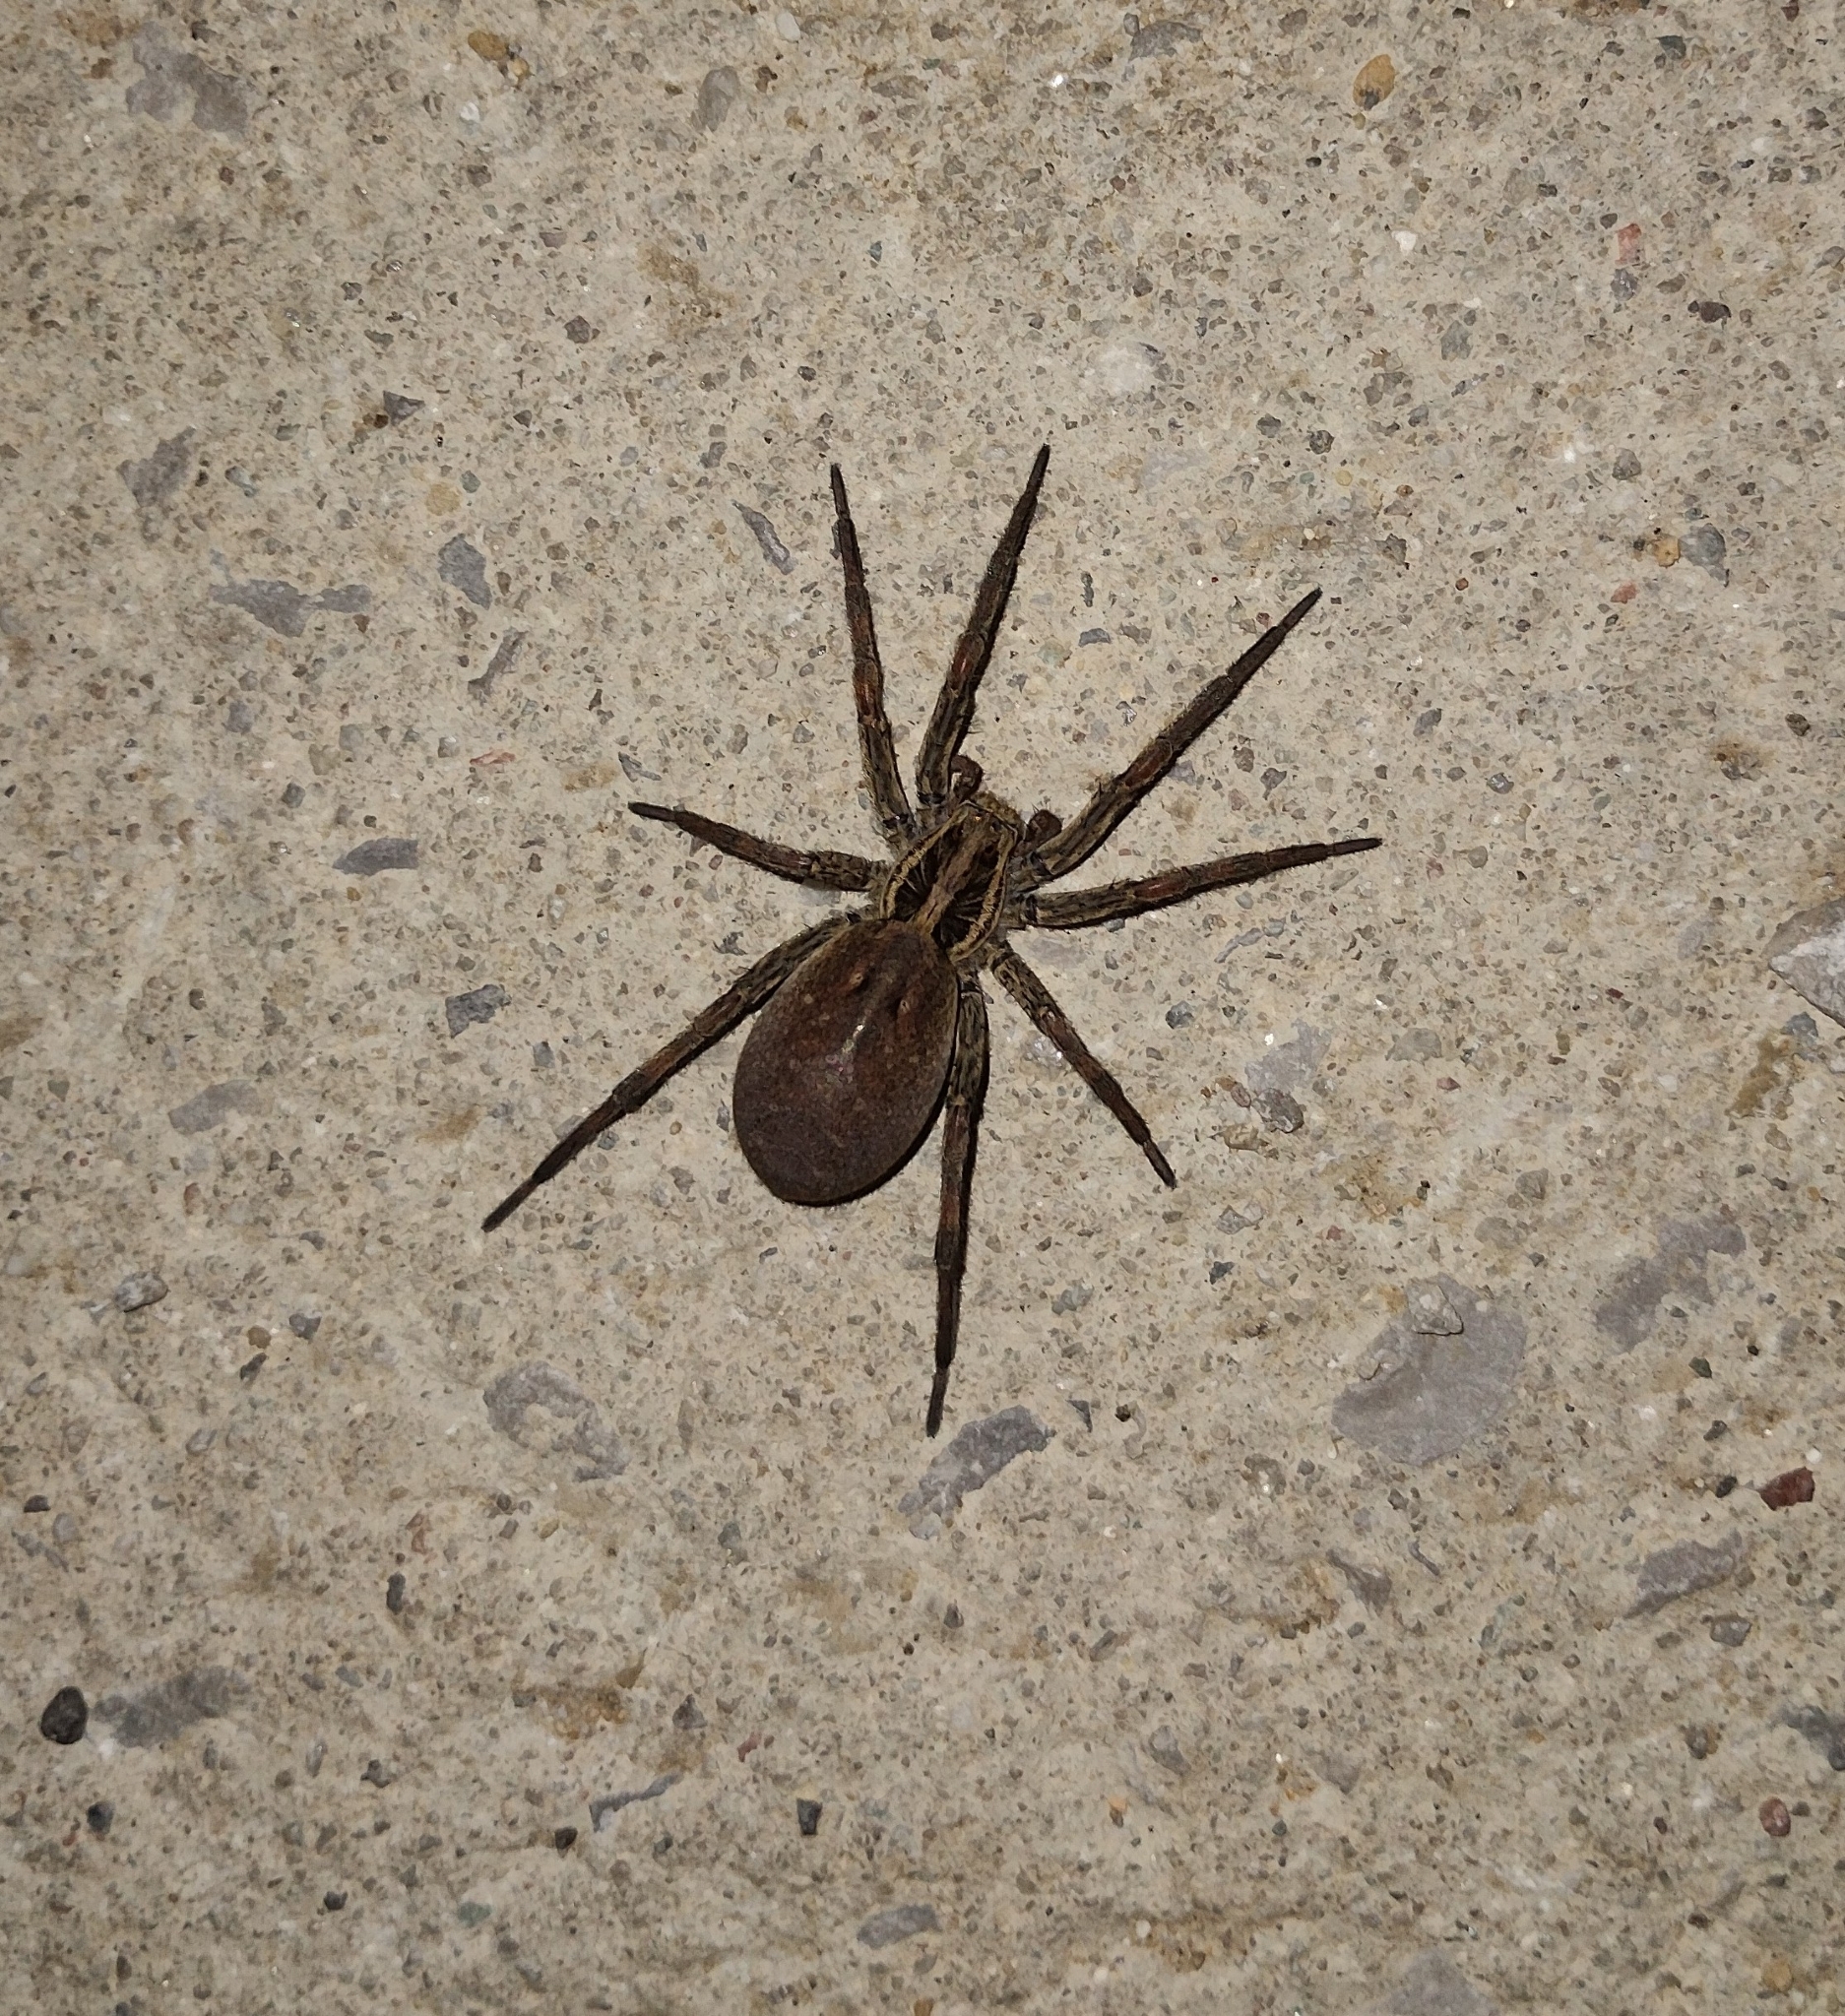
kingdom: Animalia
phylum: Arthropoda
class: Arachnida
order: Araneae
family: Lycosidae
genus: Hogna
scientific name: Hogna radiata
